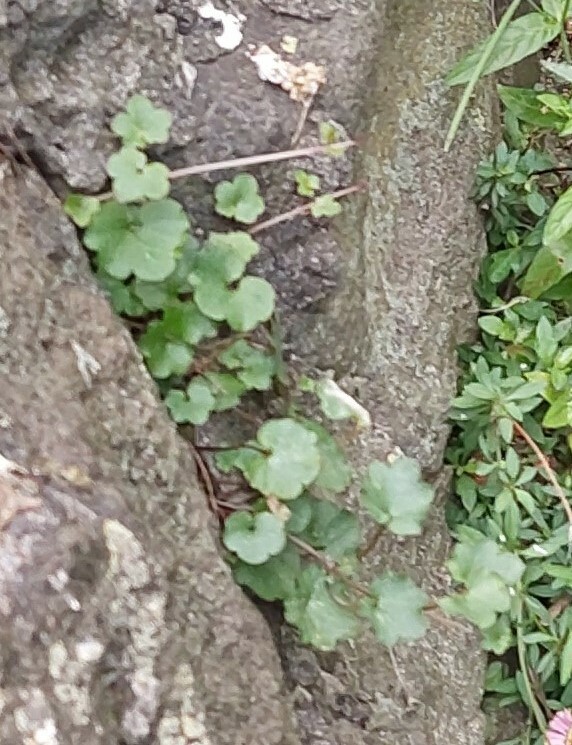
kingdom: Plantae
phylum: Tracheophyta
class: Magnoliopsida
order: Lamiales
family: Plantaginaceae
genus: Cymbalaria
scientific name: Cymbalaria muralis
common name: Ivy-leaved toadflax
